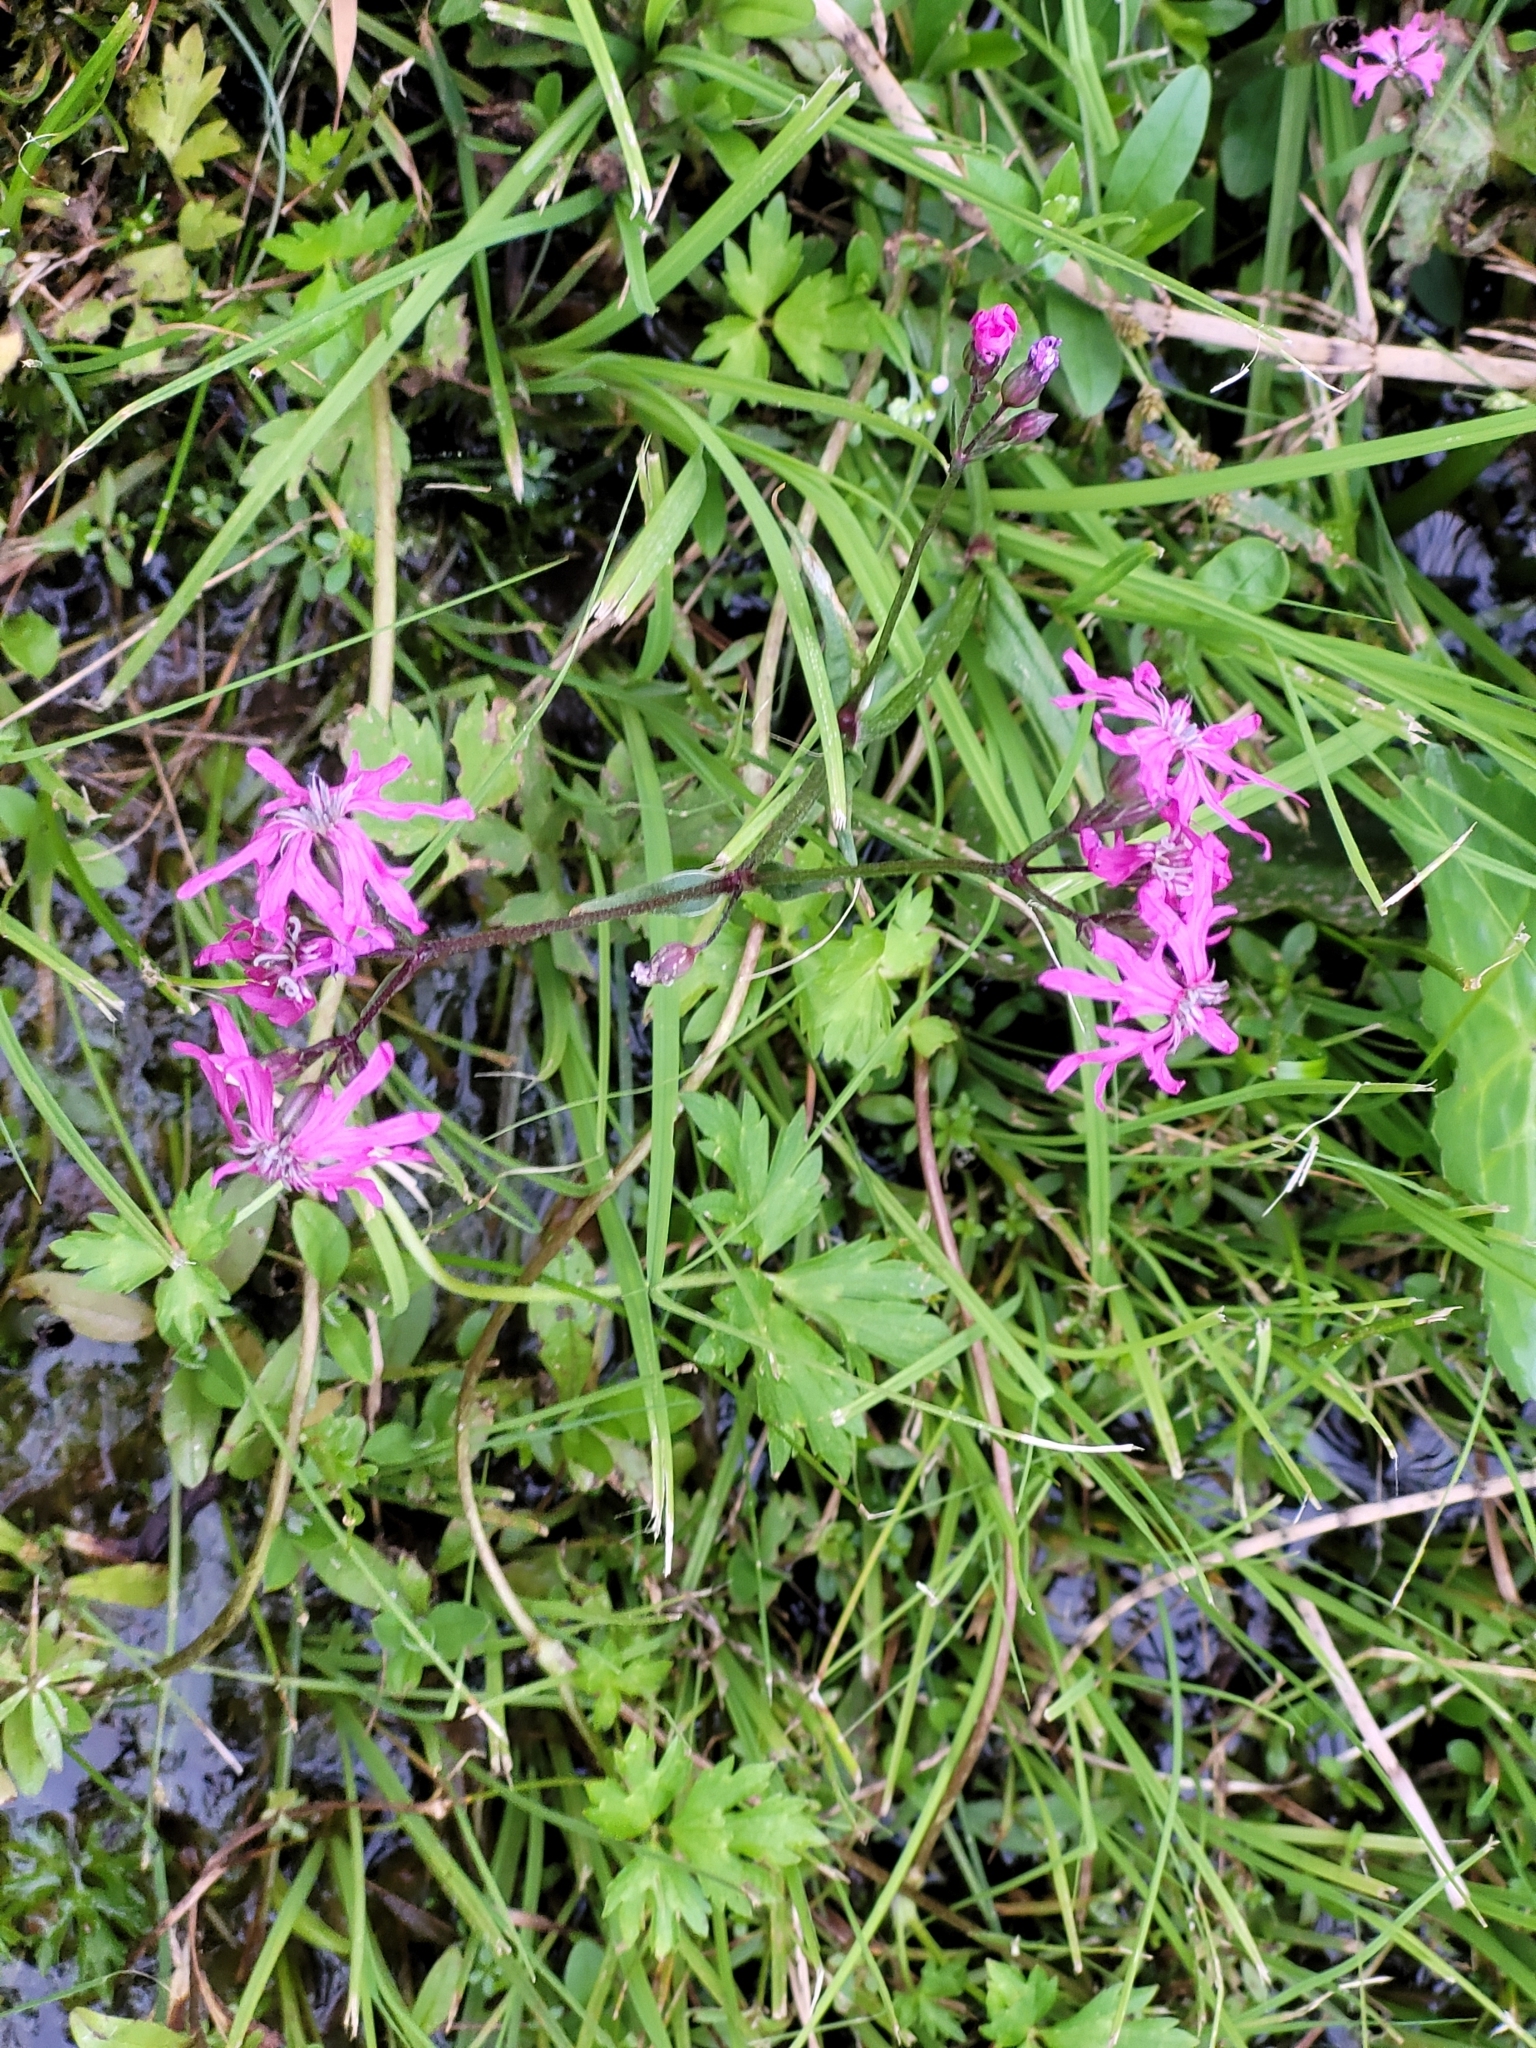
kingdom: Plantae
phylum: Tracheophyta
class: Magnoliopsida
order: Caryophyllales
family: Caryophyllaceae
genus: Silene
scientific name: Silene flos-cuculi
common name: Ragged-robin
